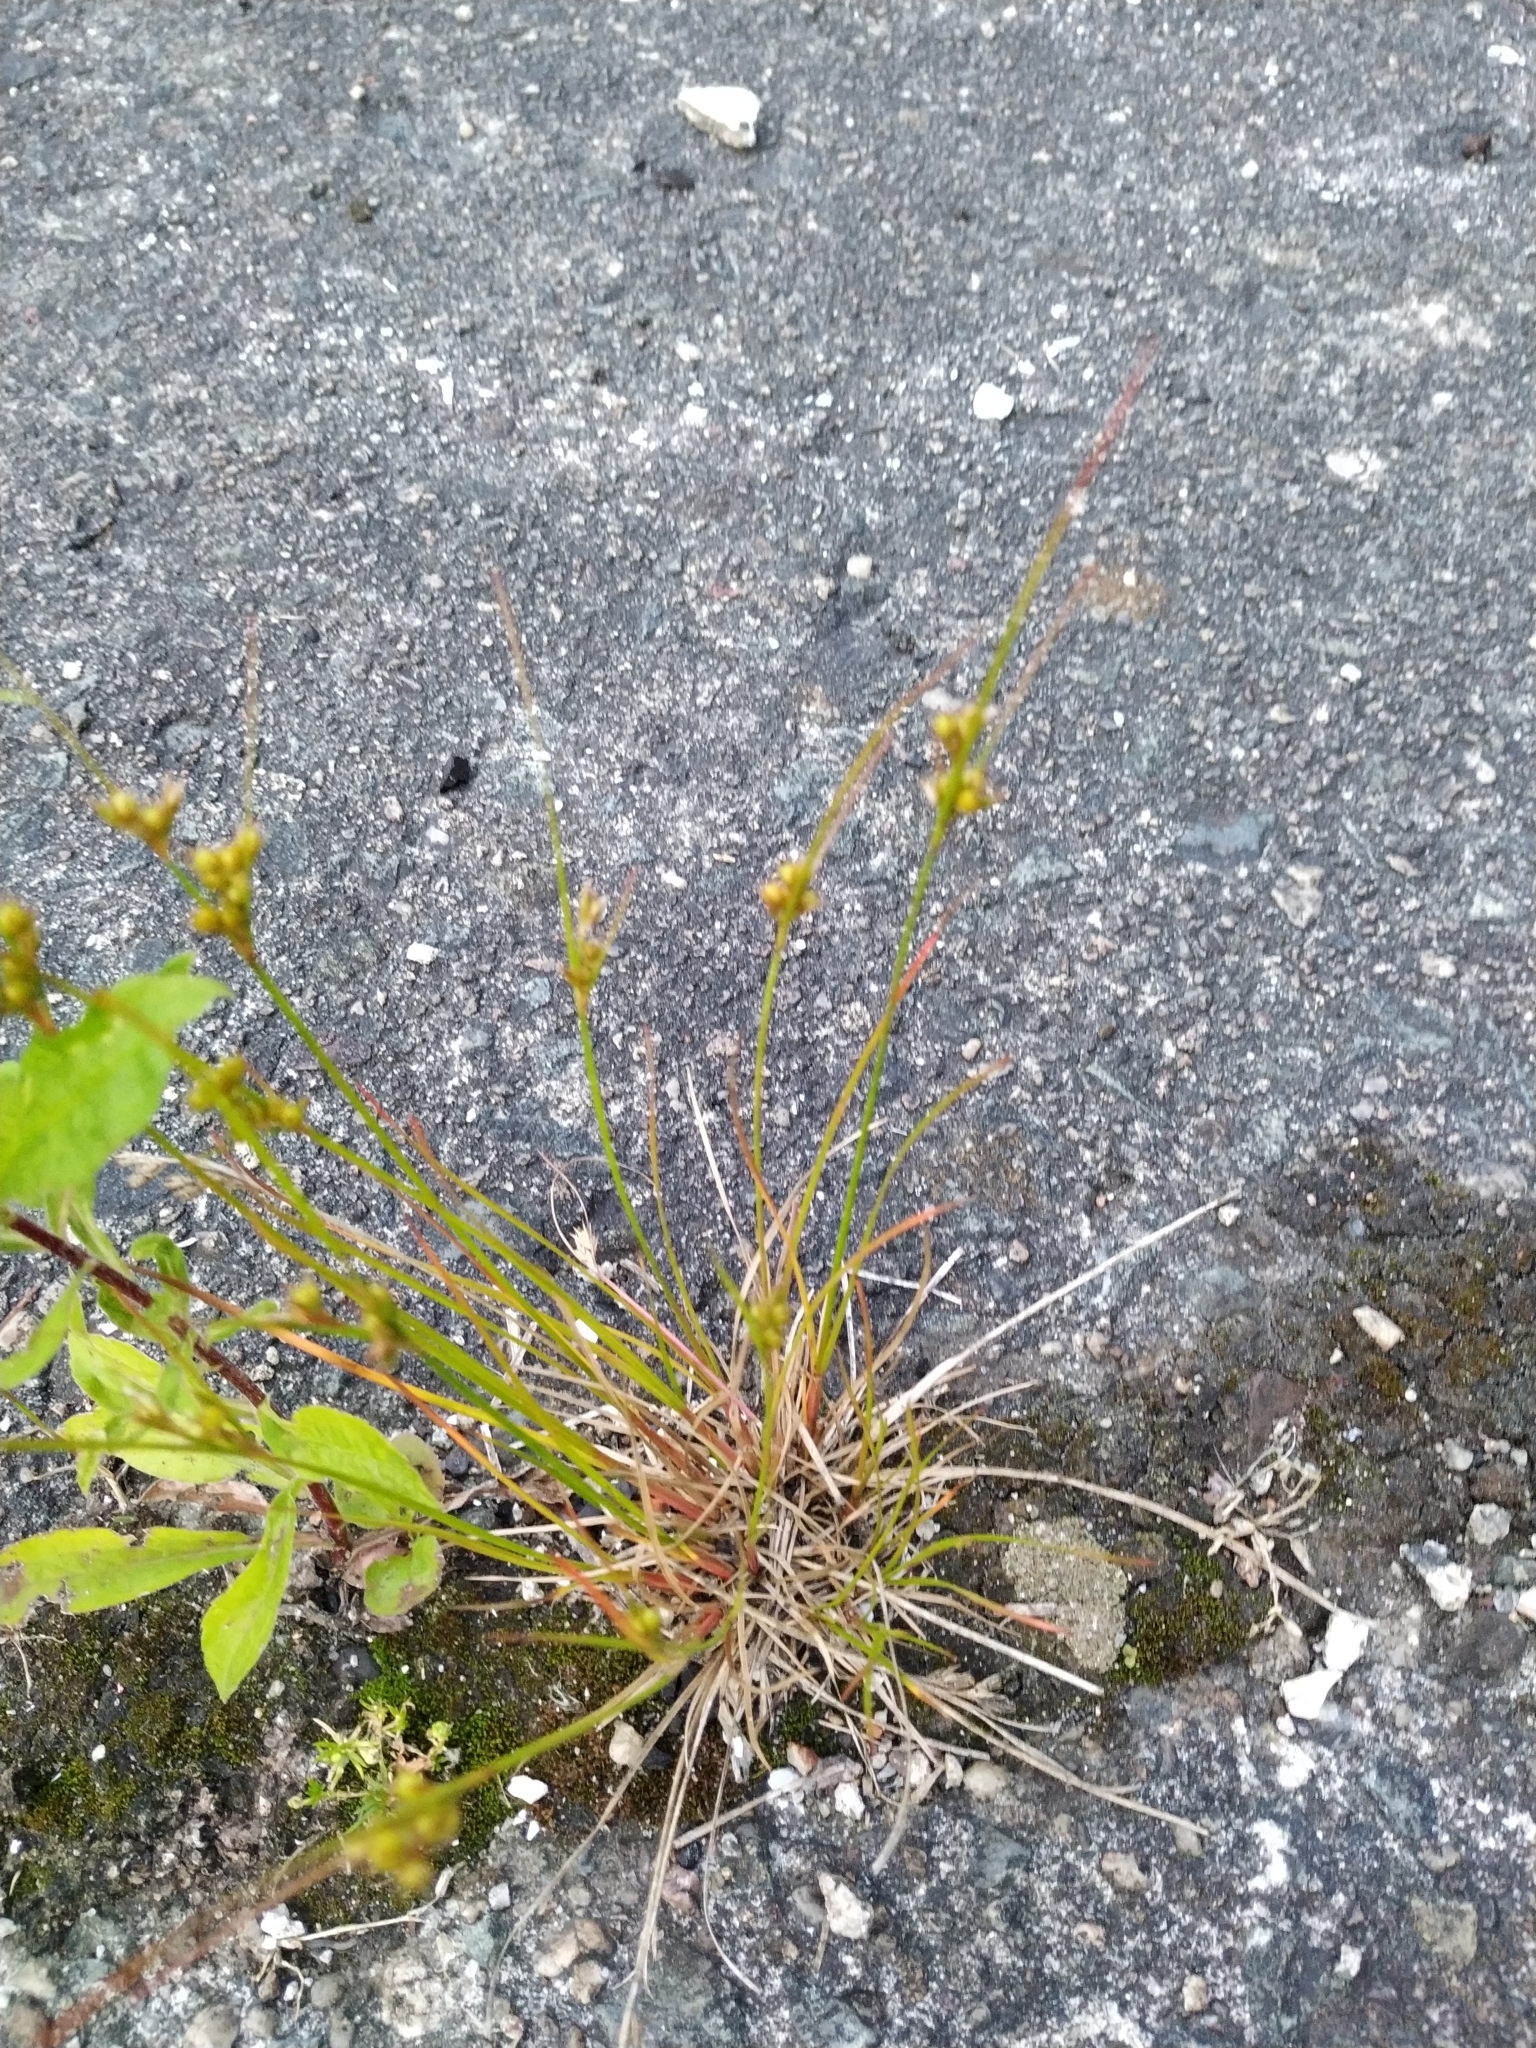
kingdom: Plantae
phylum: Tracheophyta
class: Liliopsida
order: Poales
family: Juncaceae
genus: Juncus
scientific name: Juncus tenuis
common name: Slender rush
